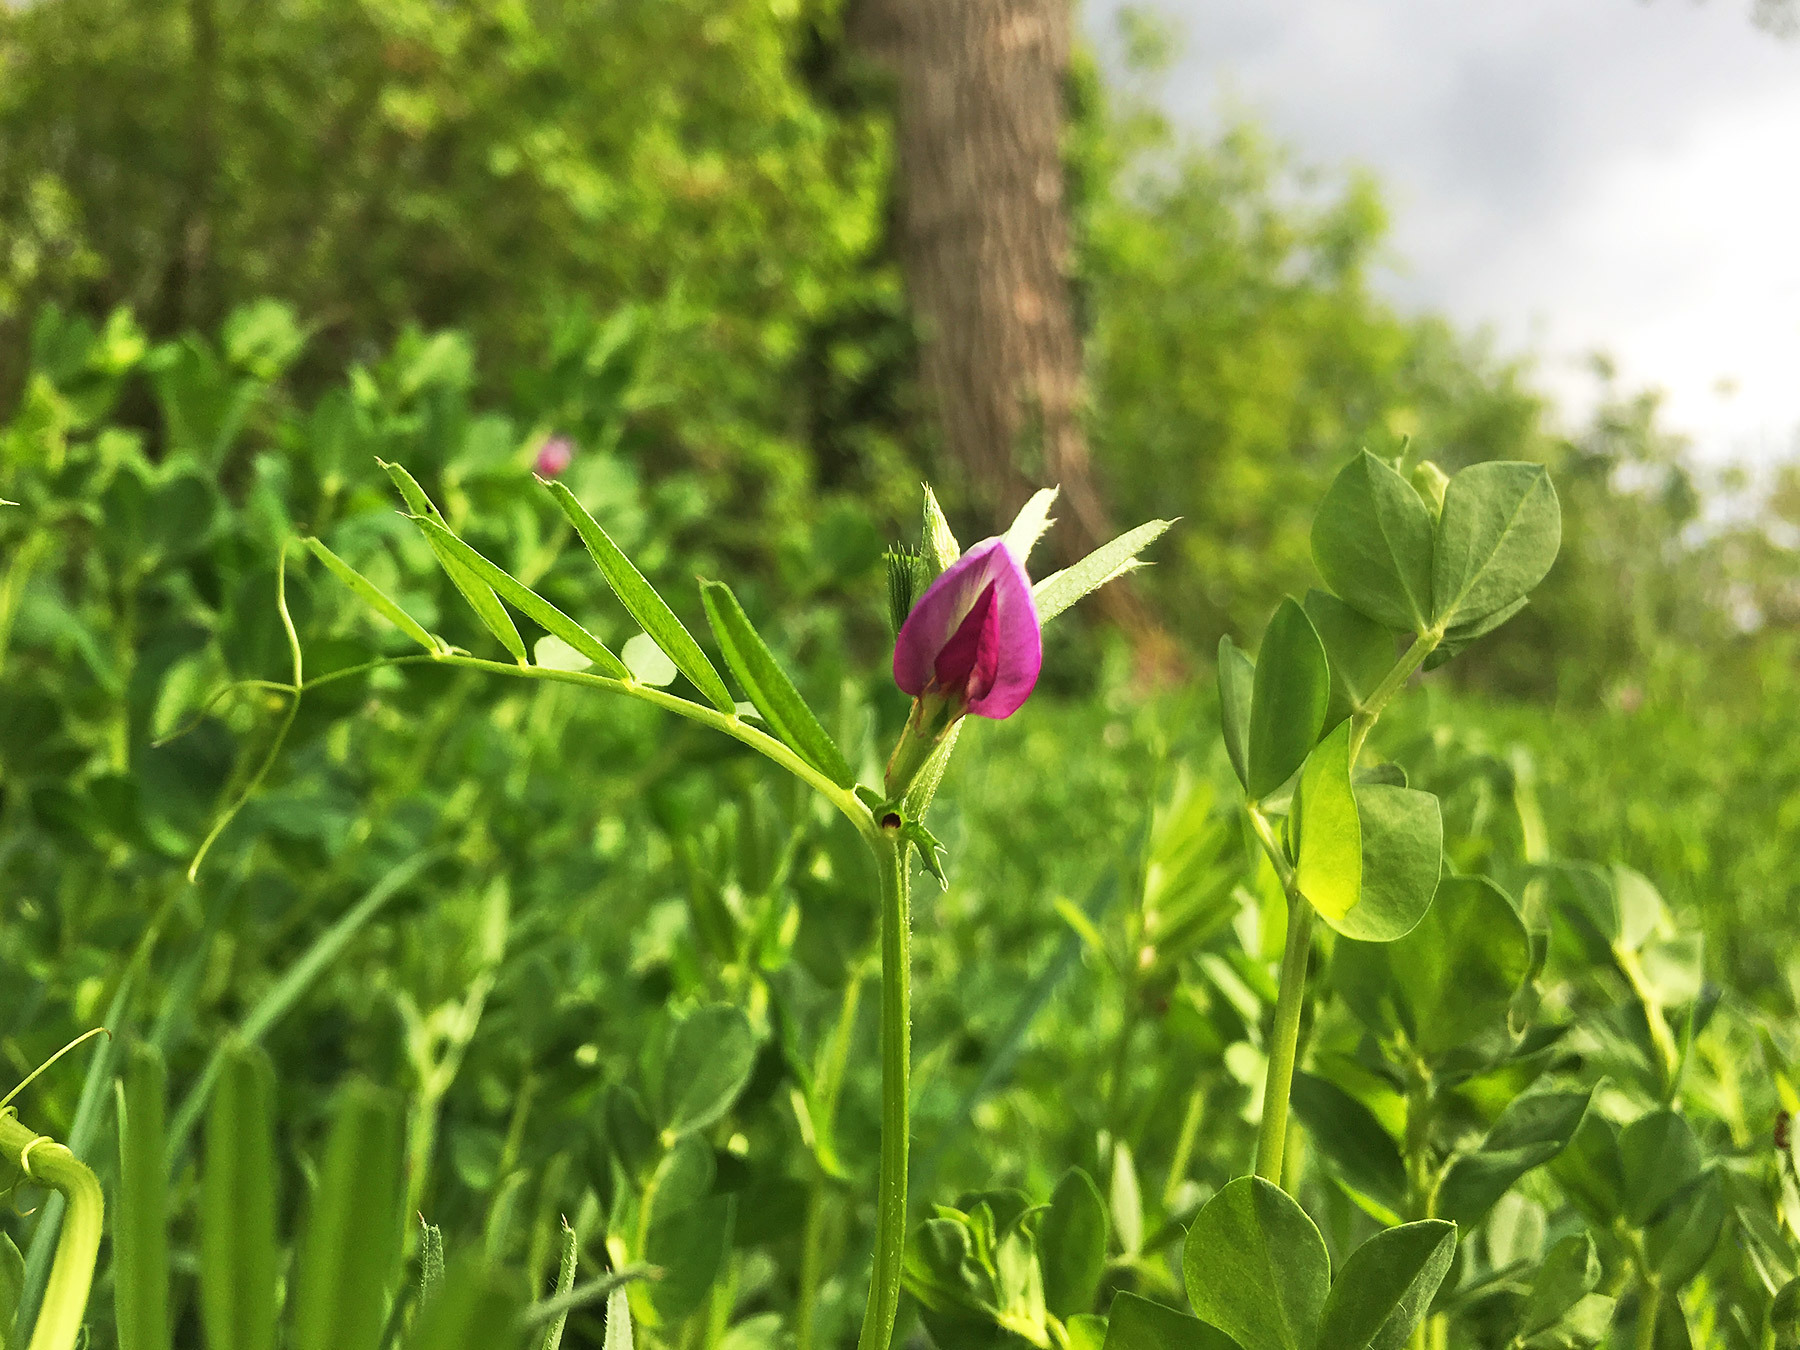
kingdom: Plantae
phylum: Tracheophyta
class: Magnoliopsida
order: Fabales
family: Fabaceae
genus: Vicia
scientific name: Vicia sativa
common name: Garden vetch
